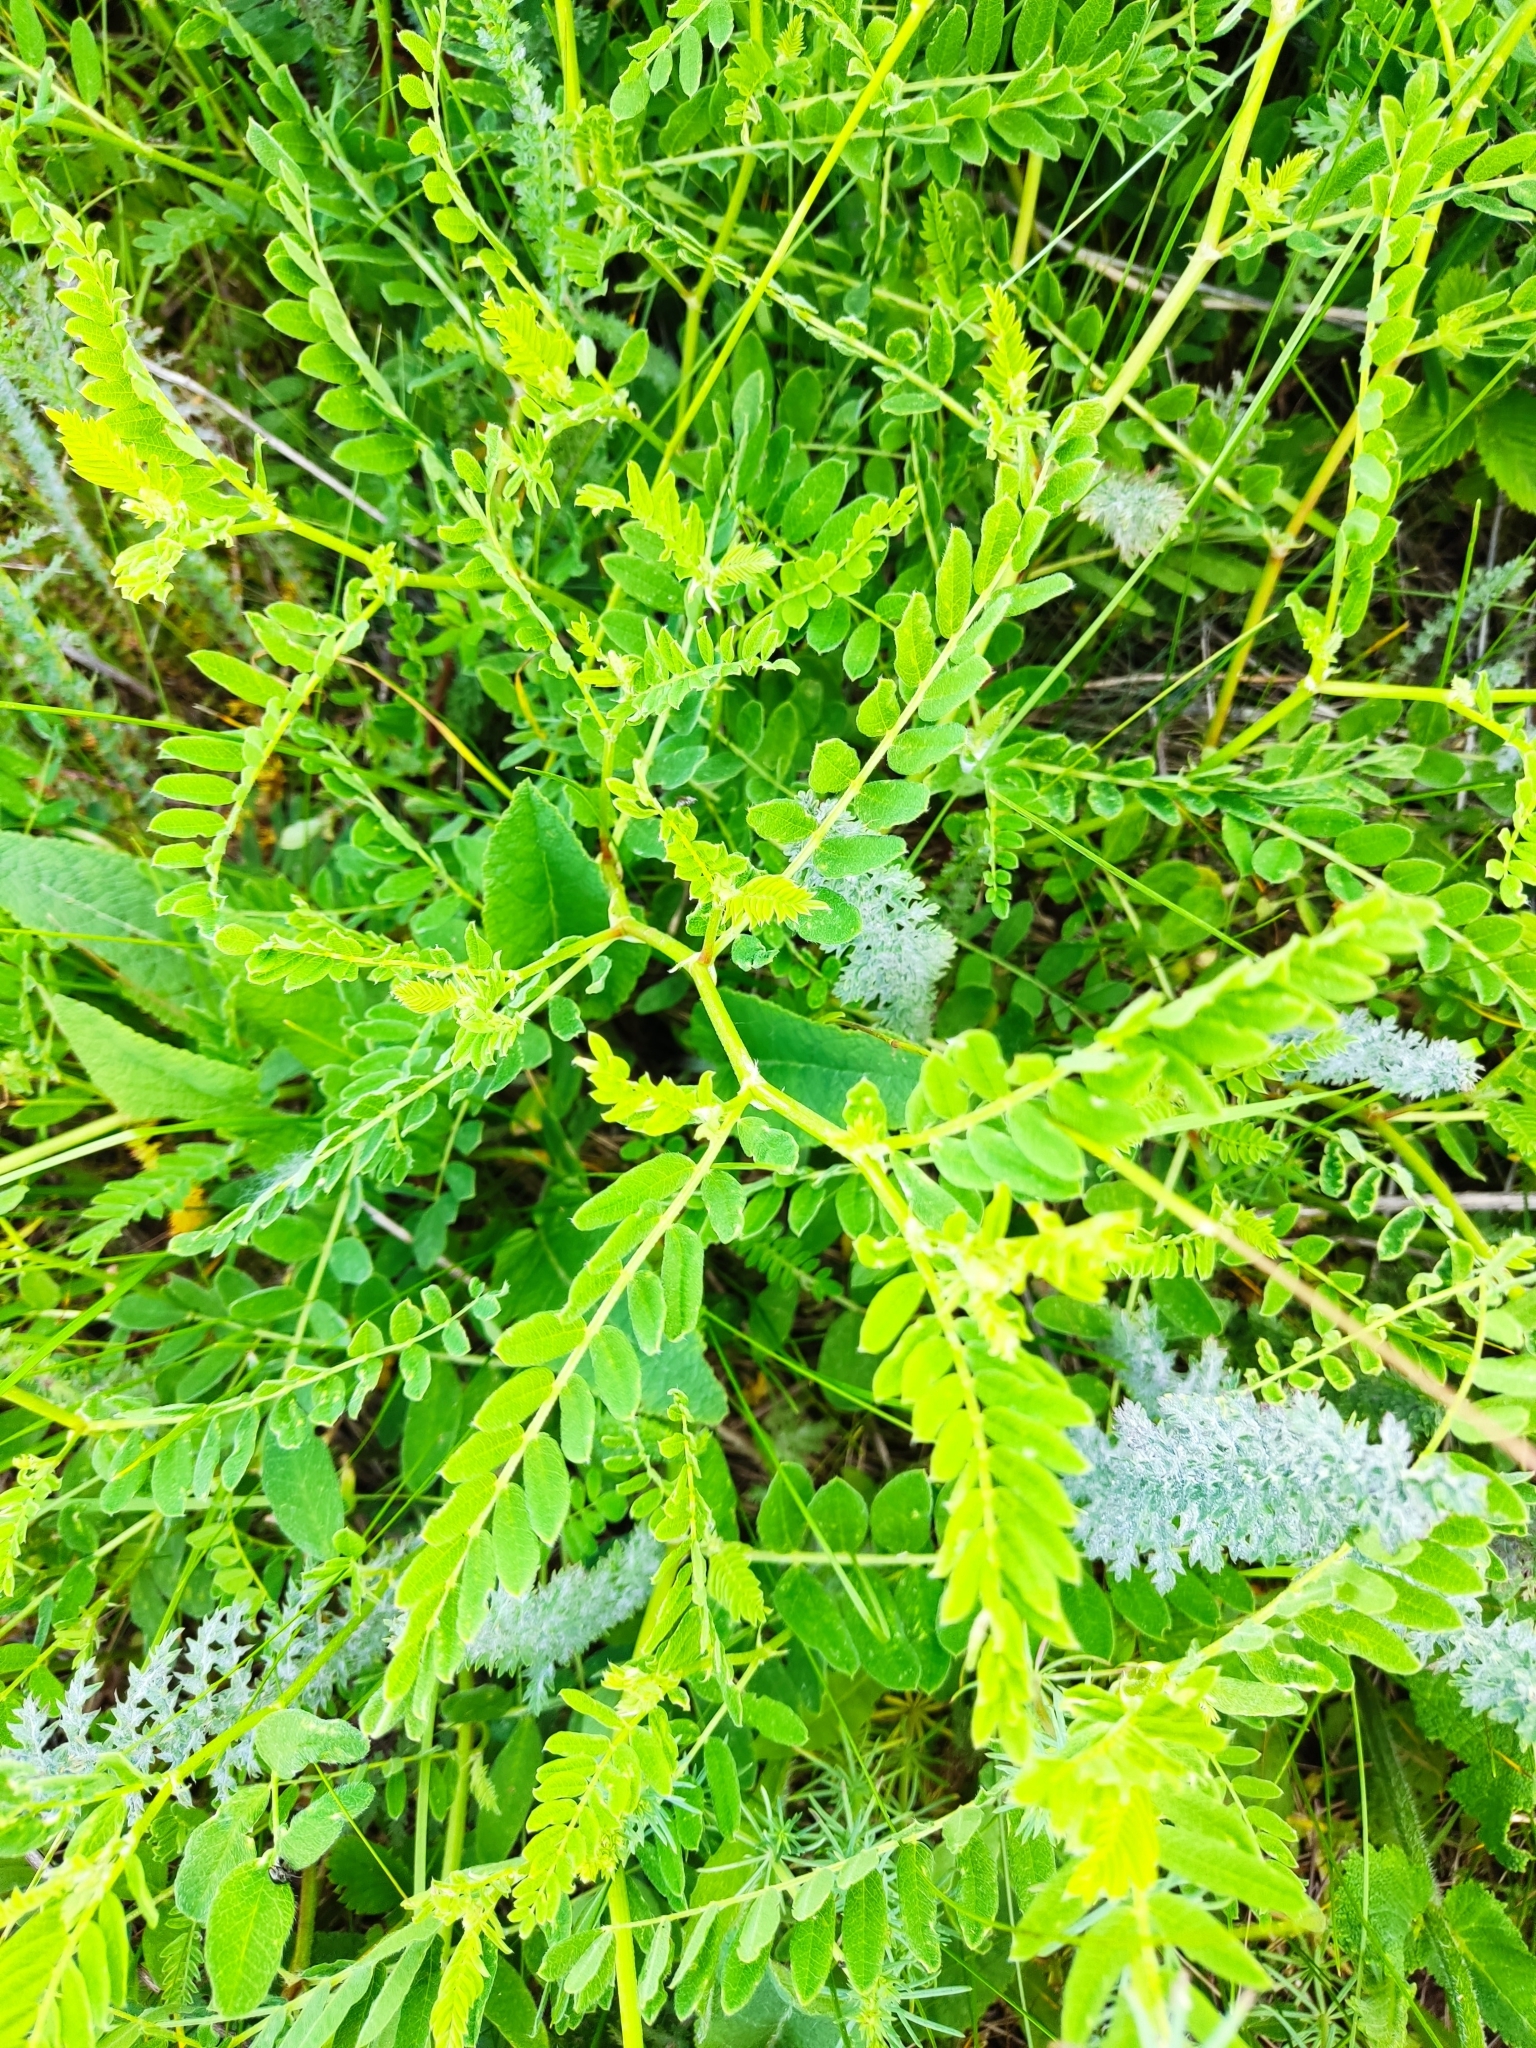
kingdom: Plantae
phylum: Tracheophyta
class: Magnoliopsida
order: Fabales
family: Fabaceae
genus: Astragalus
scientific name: Astragalus cicer
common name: Chick-pea milk-vetch
